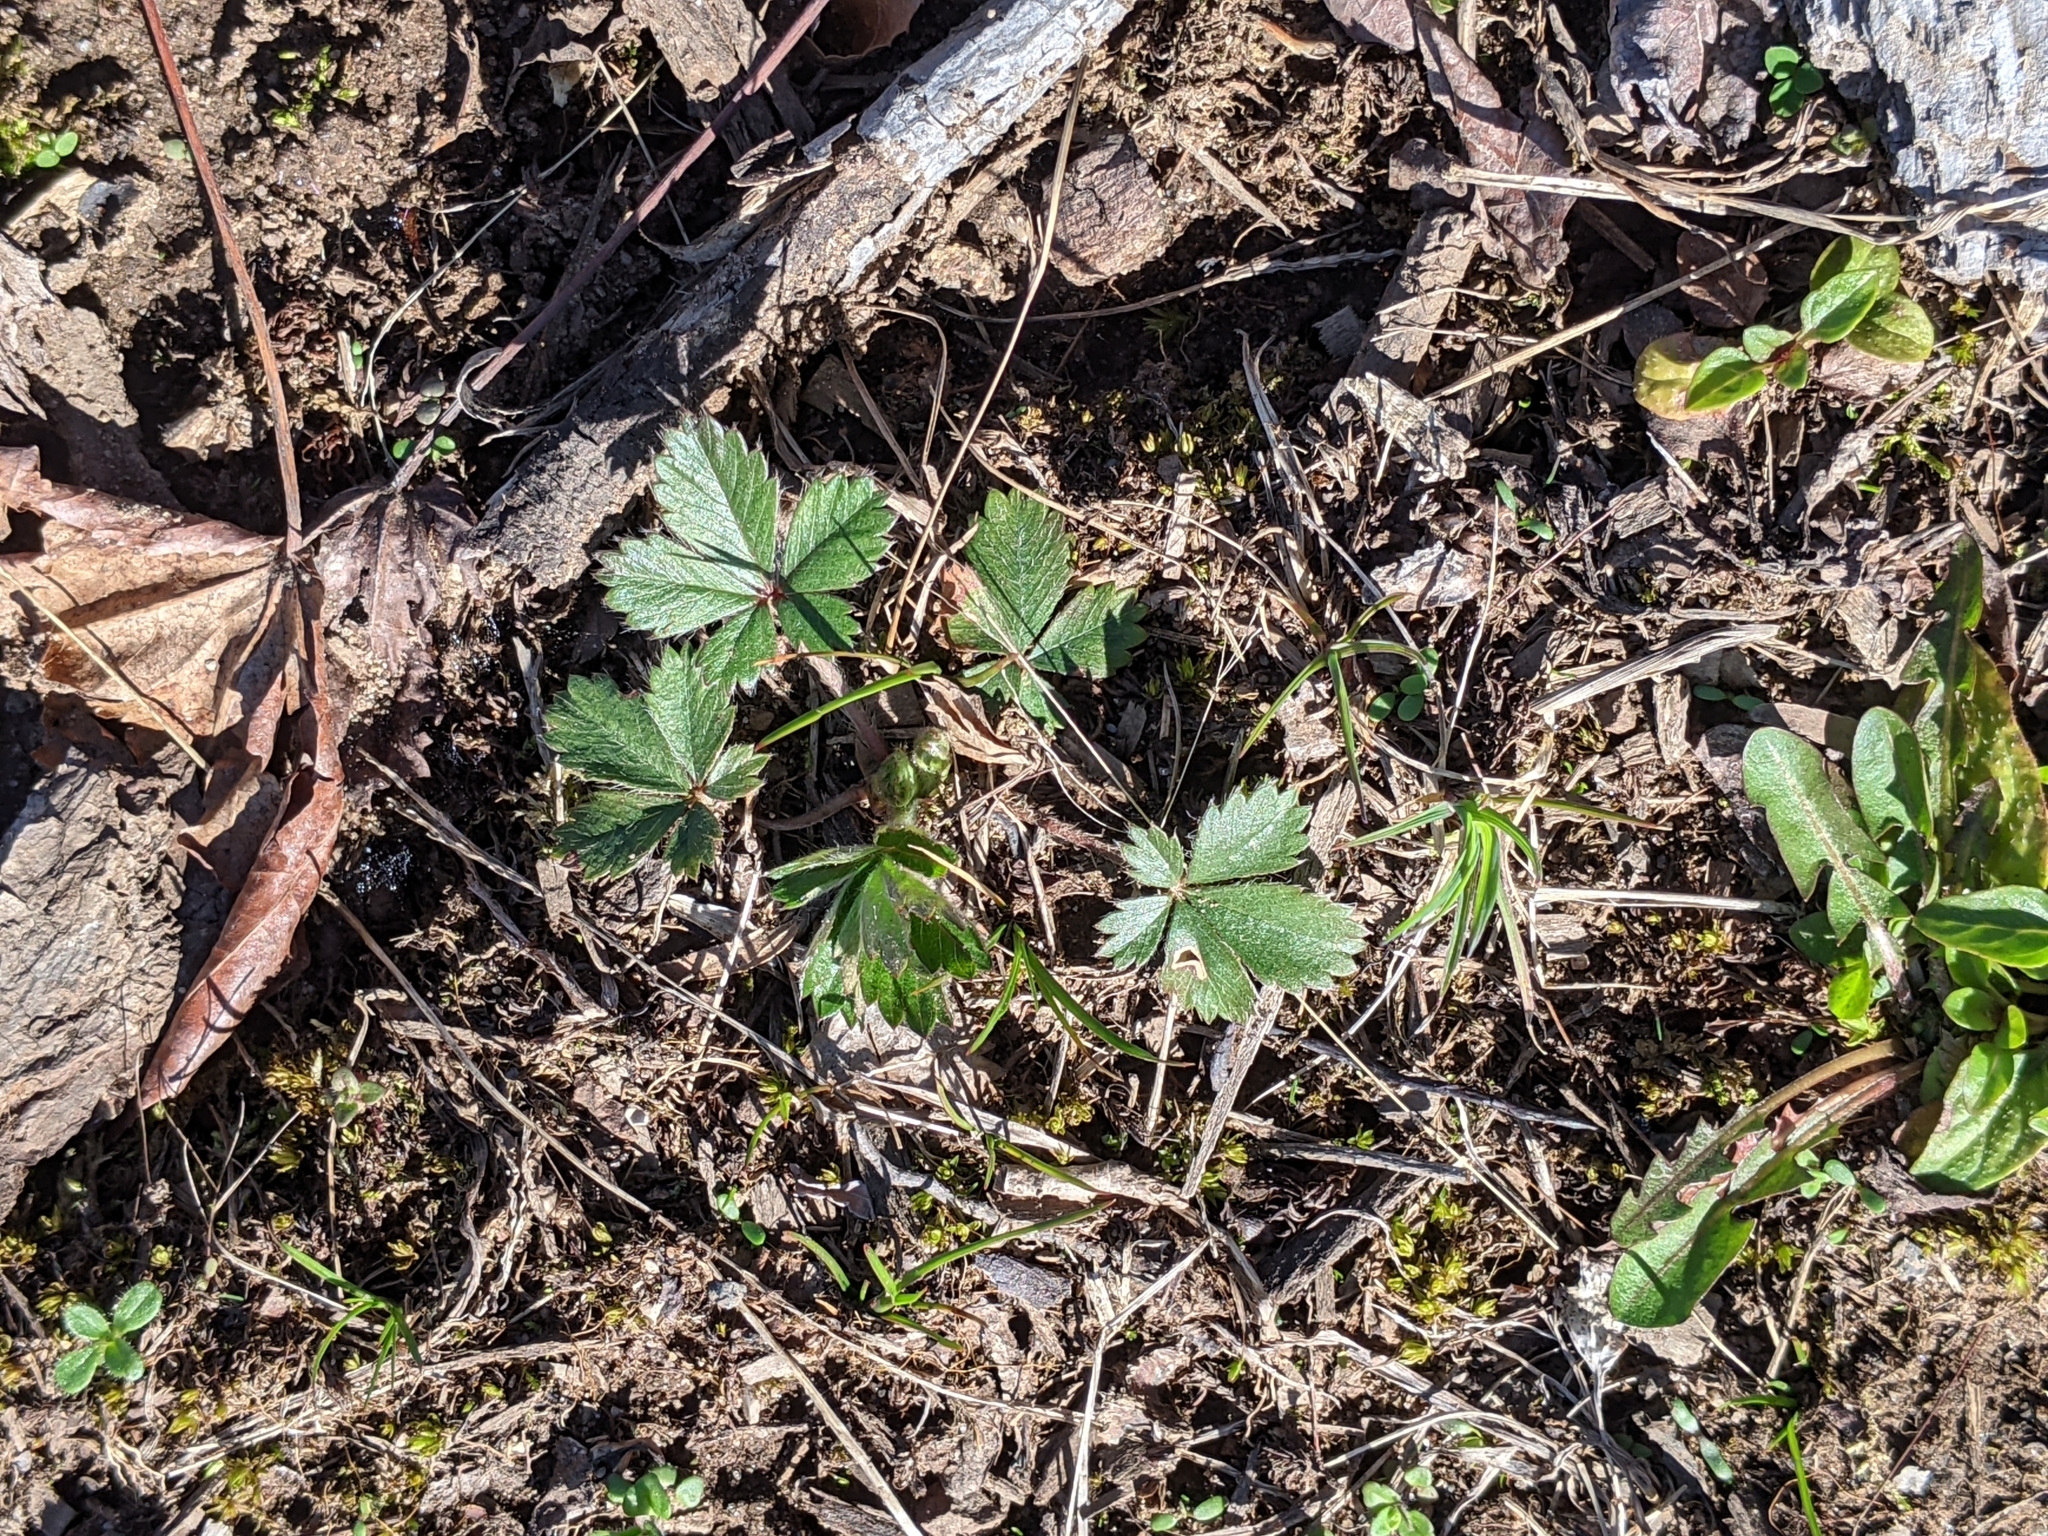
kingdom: Plantae
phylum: Tracheophyta
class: Magnoliopsida
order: Rosales
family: Rosaceae
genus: Potentilla
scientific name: Potentilla canadensis
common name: Canada cinquefoil
